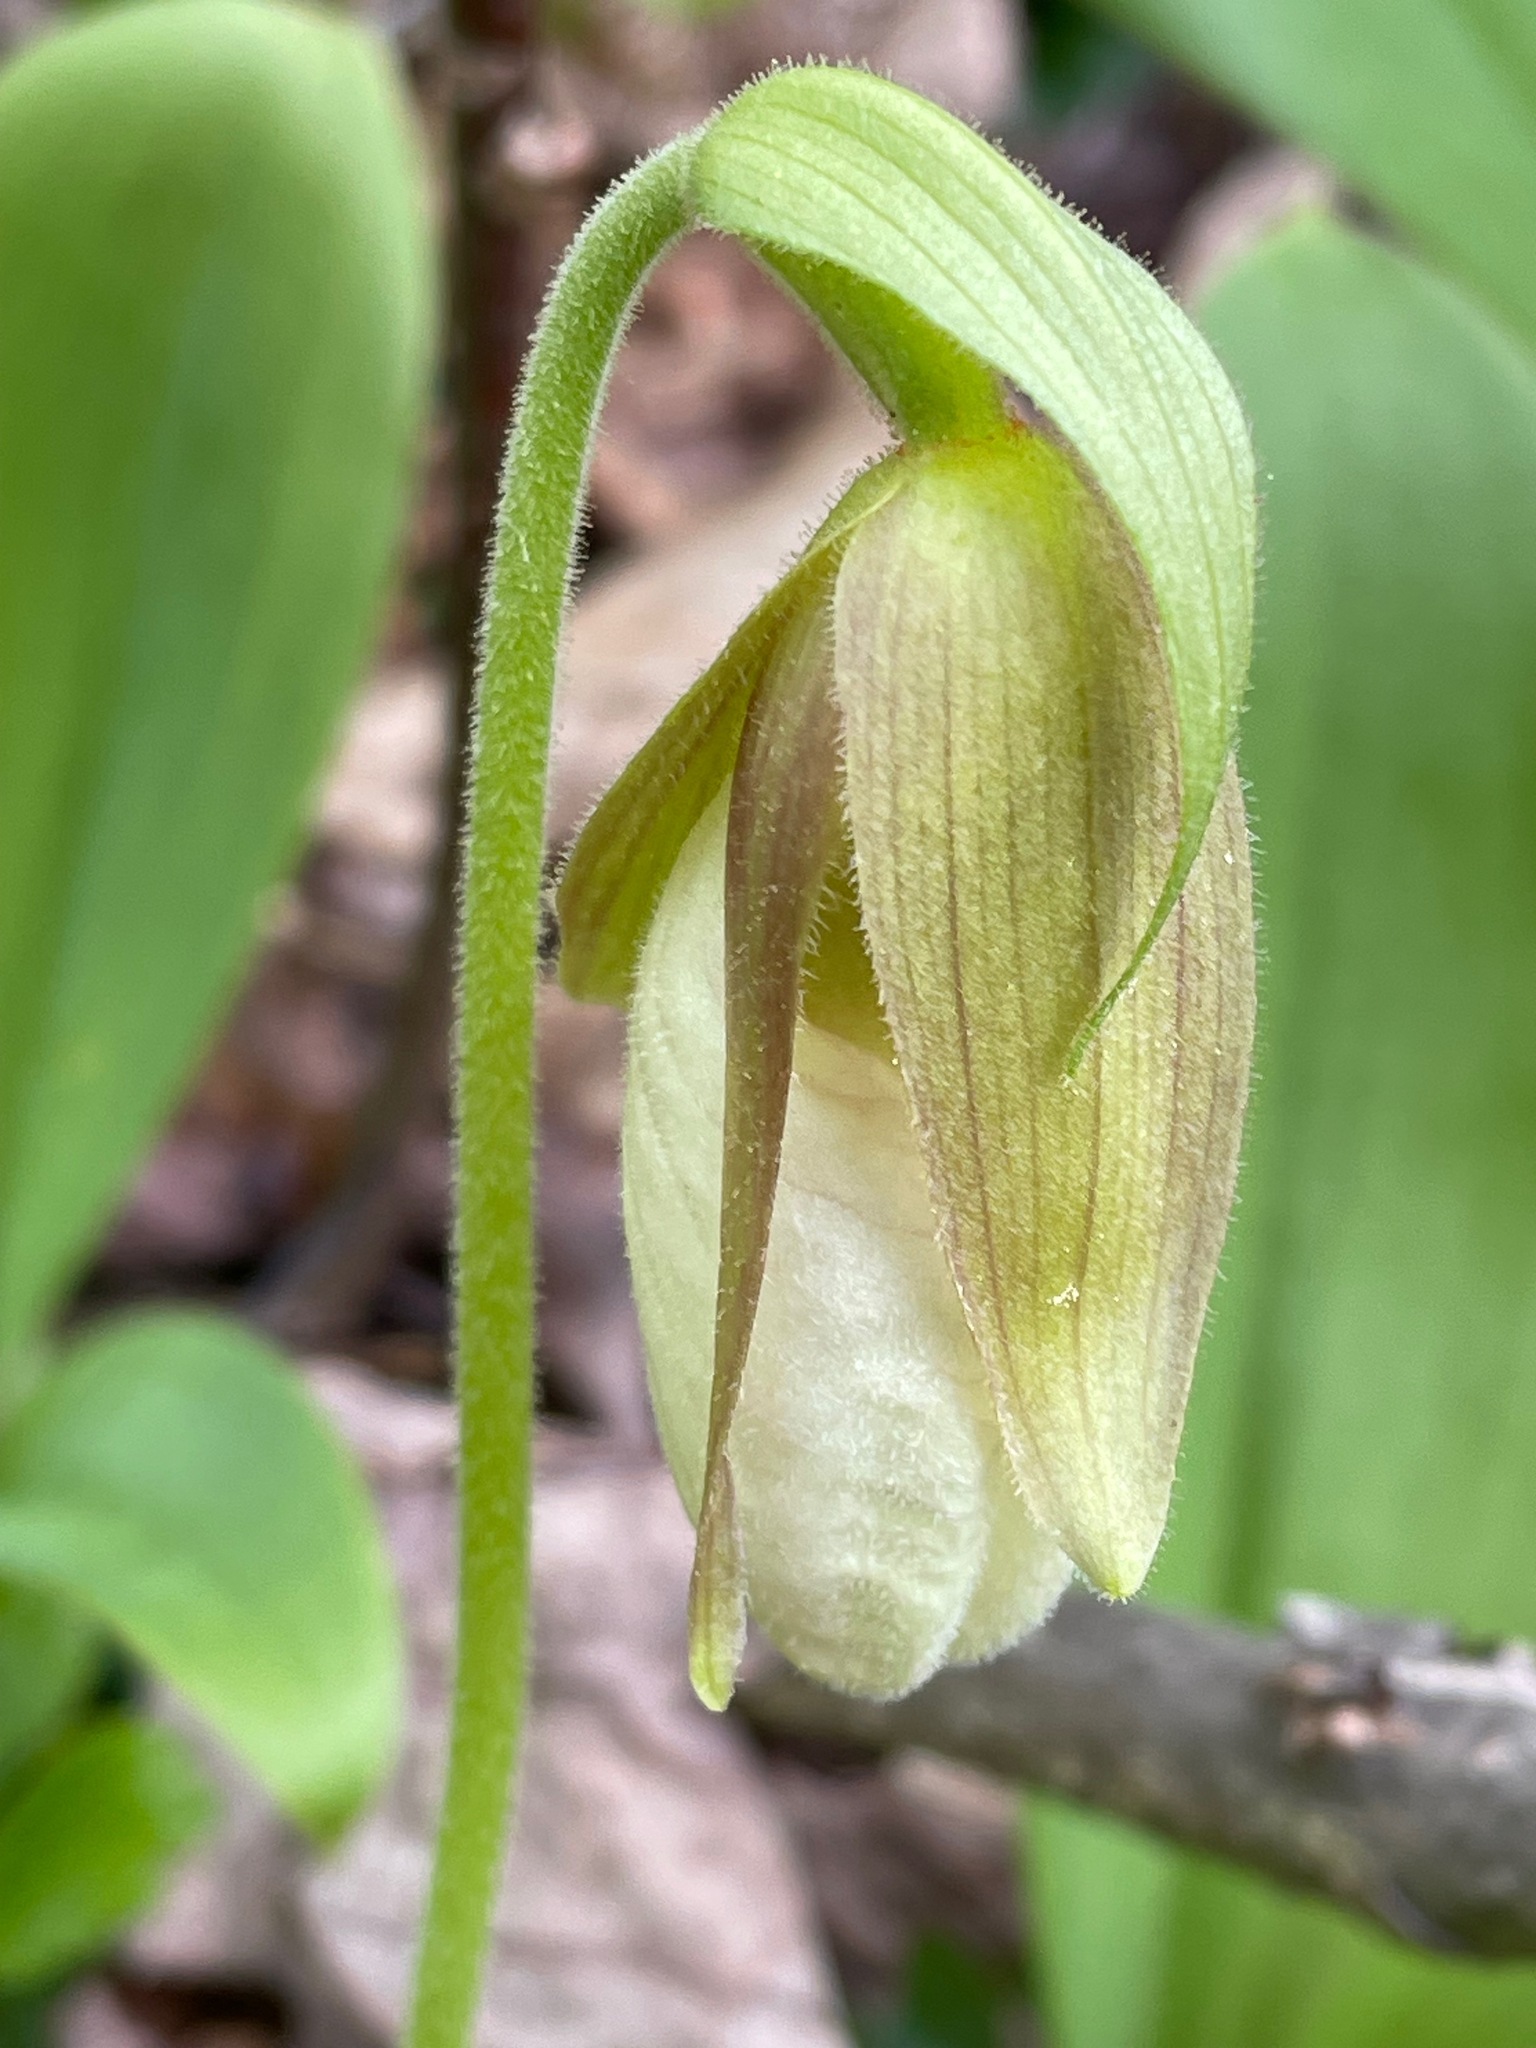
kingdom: Plantae
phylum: Tracheophyta
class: Liliopsida
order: Asparagales
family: Orchidaceae
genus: Cypripedium
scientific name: Cypripedium acaule
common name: Pink lady's-slipper
